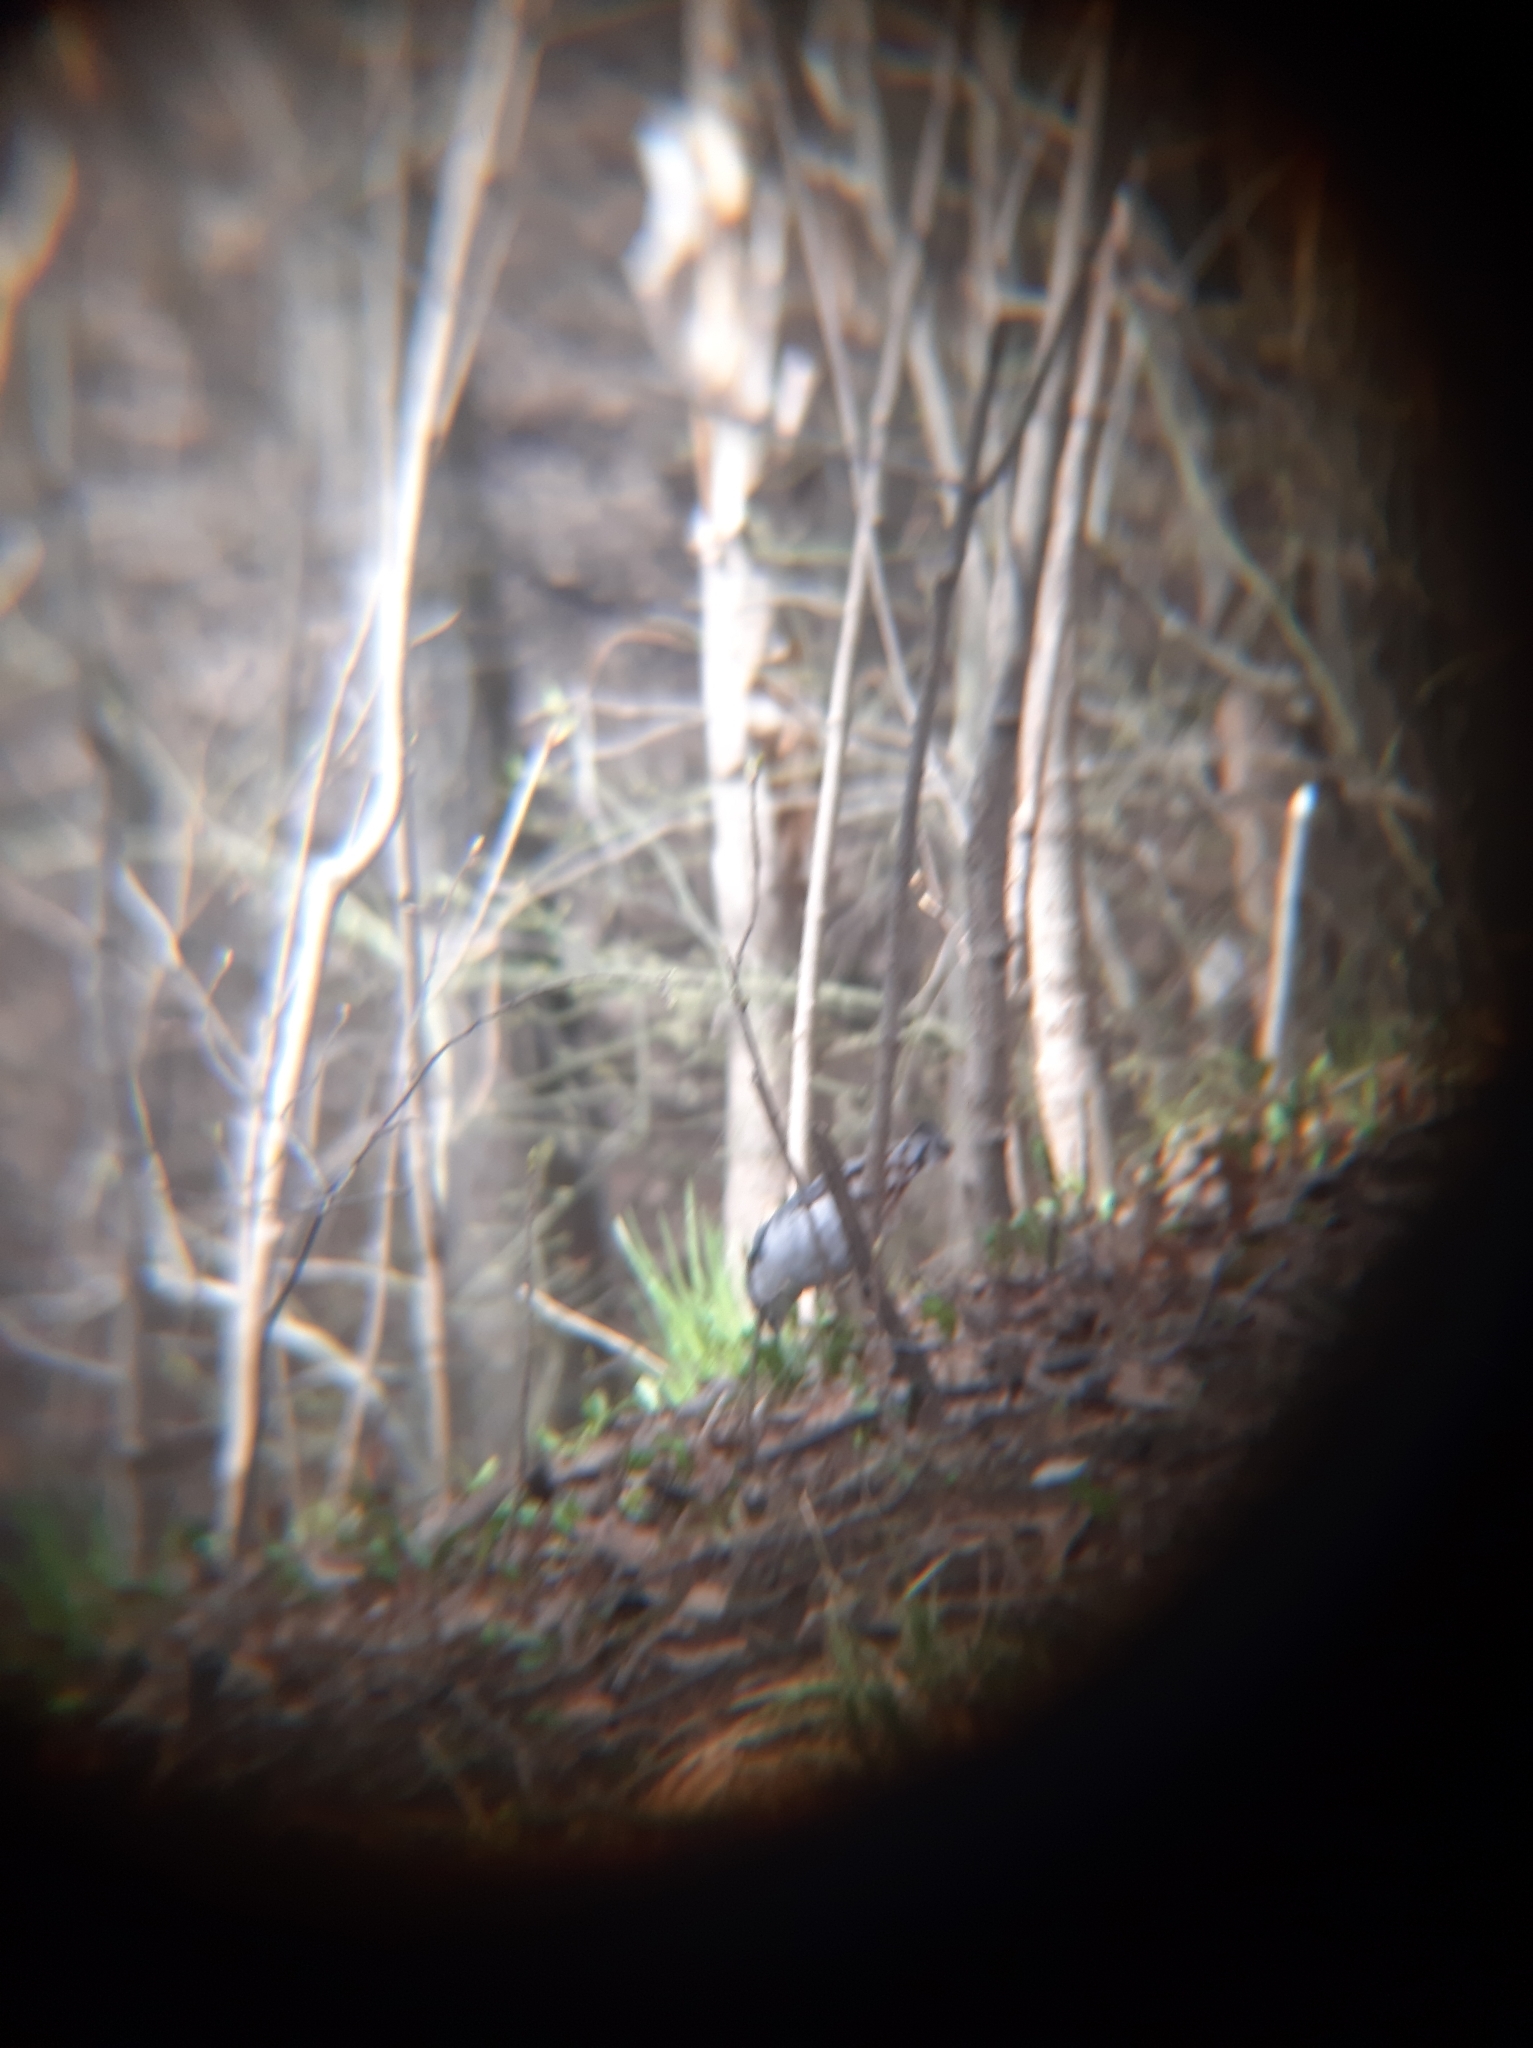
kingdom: Animalia
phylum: Chordata
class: Aves
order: Passeriformes
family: Sittidae
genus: Sitta
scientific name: Sitta europaea
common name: Eurasian nuthatch
